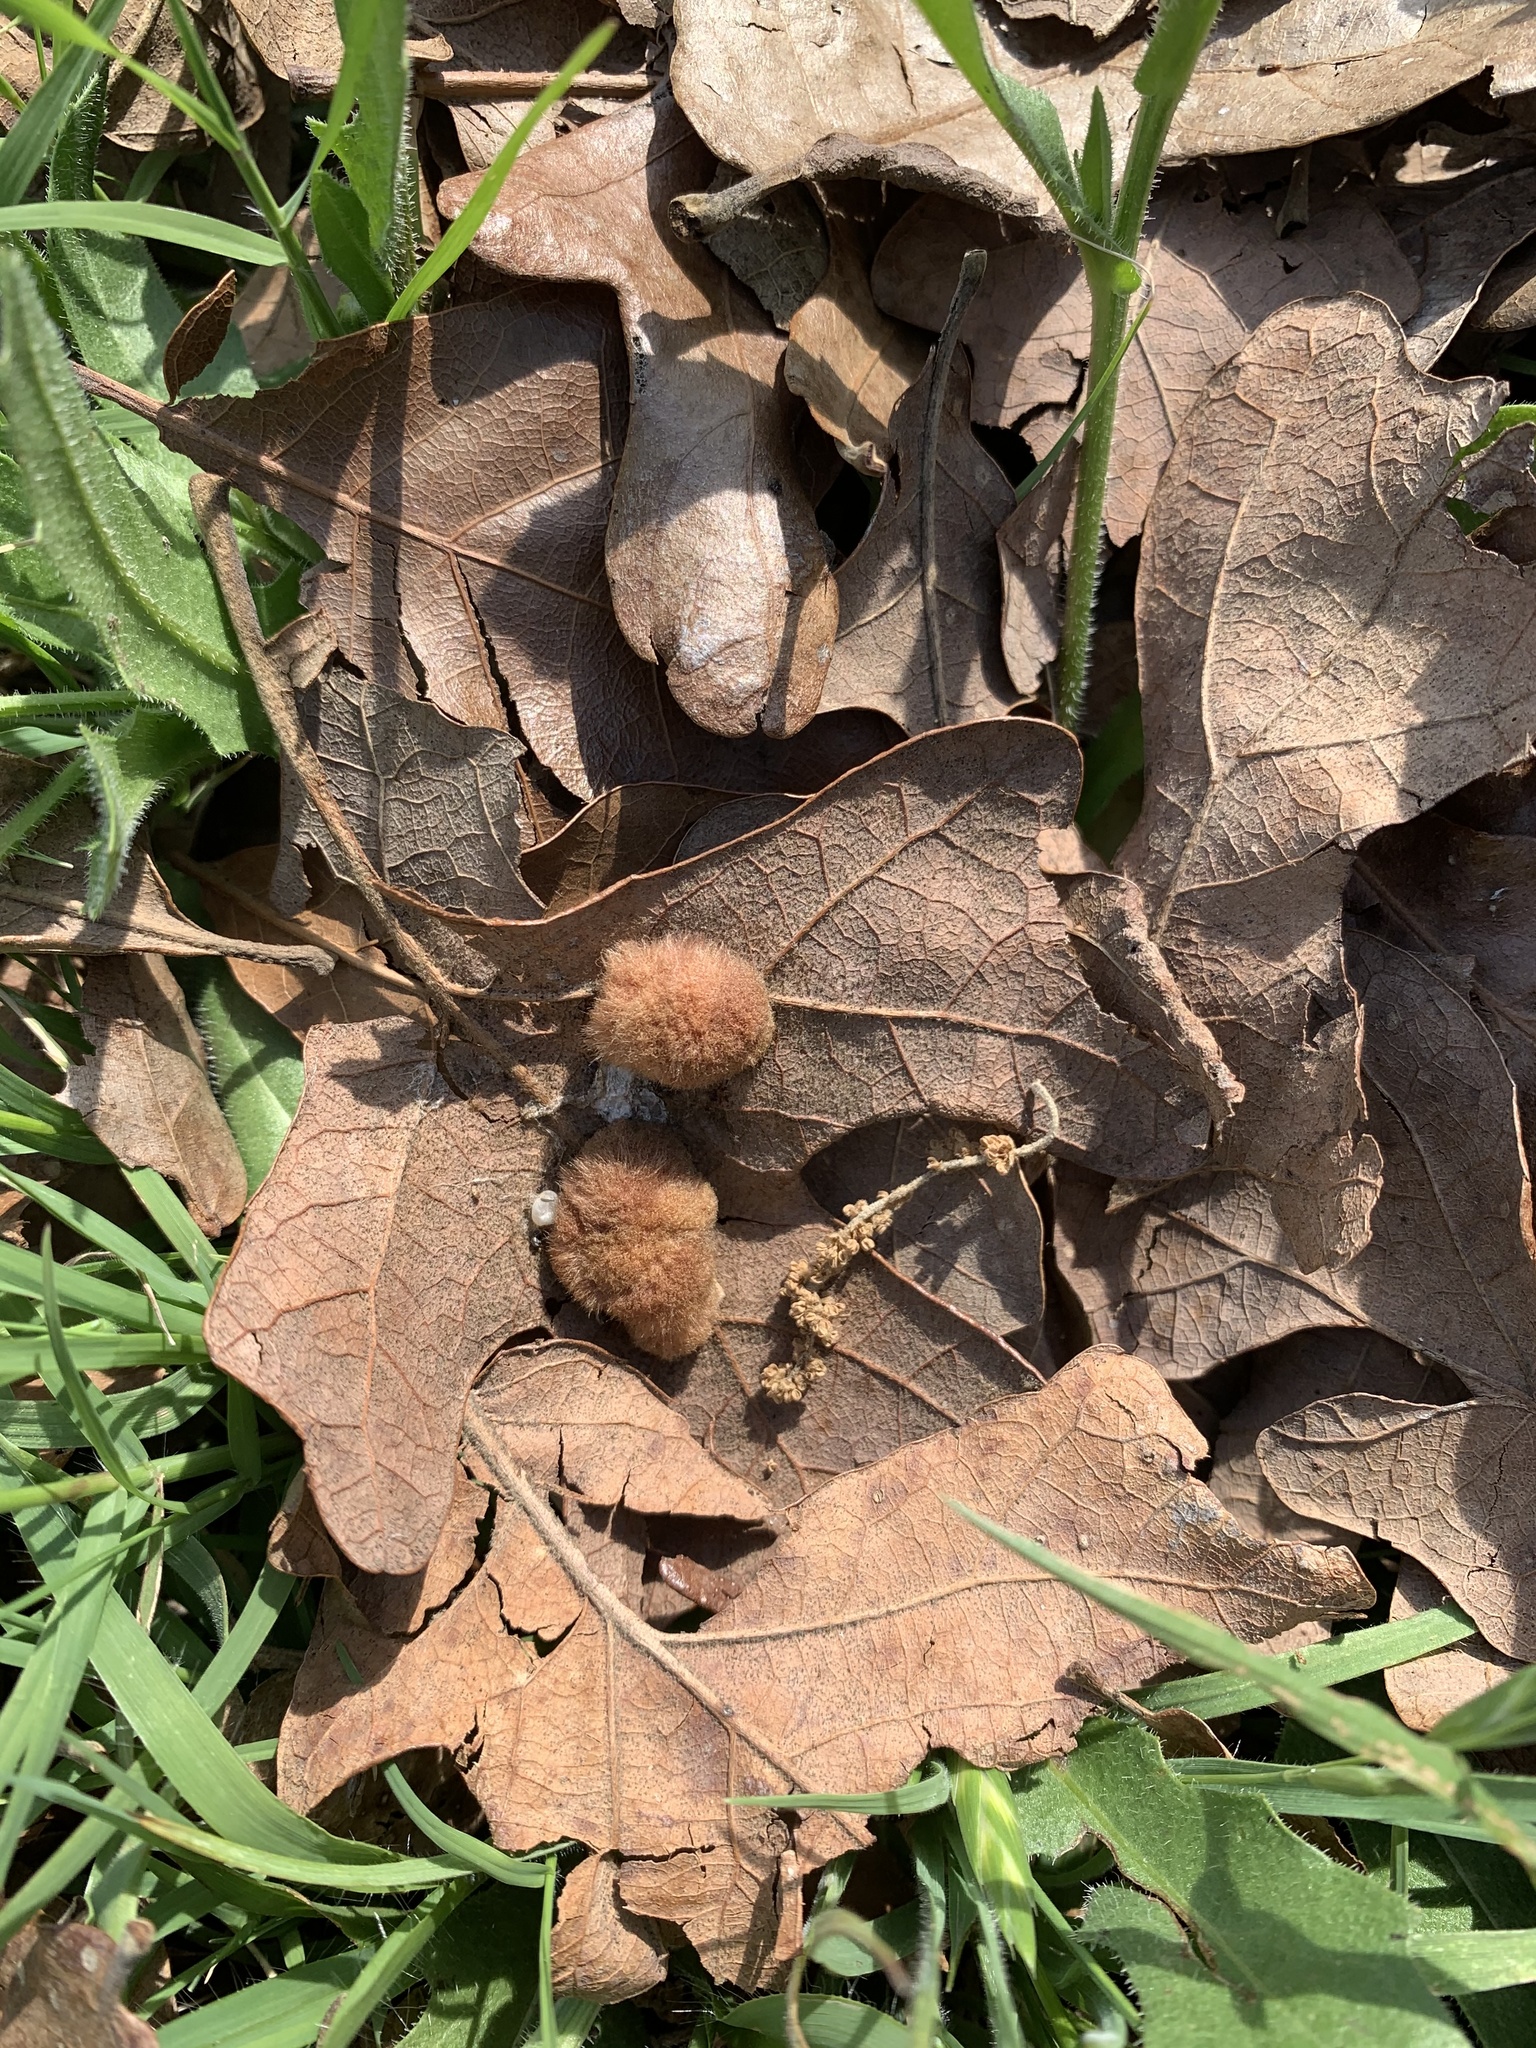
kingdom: Animalia
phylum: Arthropoda
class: Insecta
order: Hymenoptera
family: Cynipidae
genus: Andricus
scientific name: Andricus Druon pattoni
